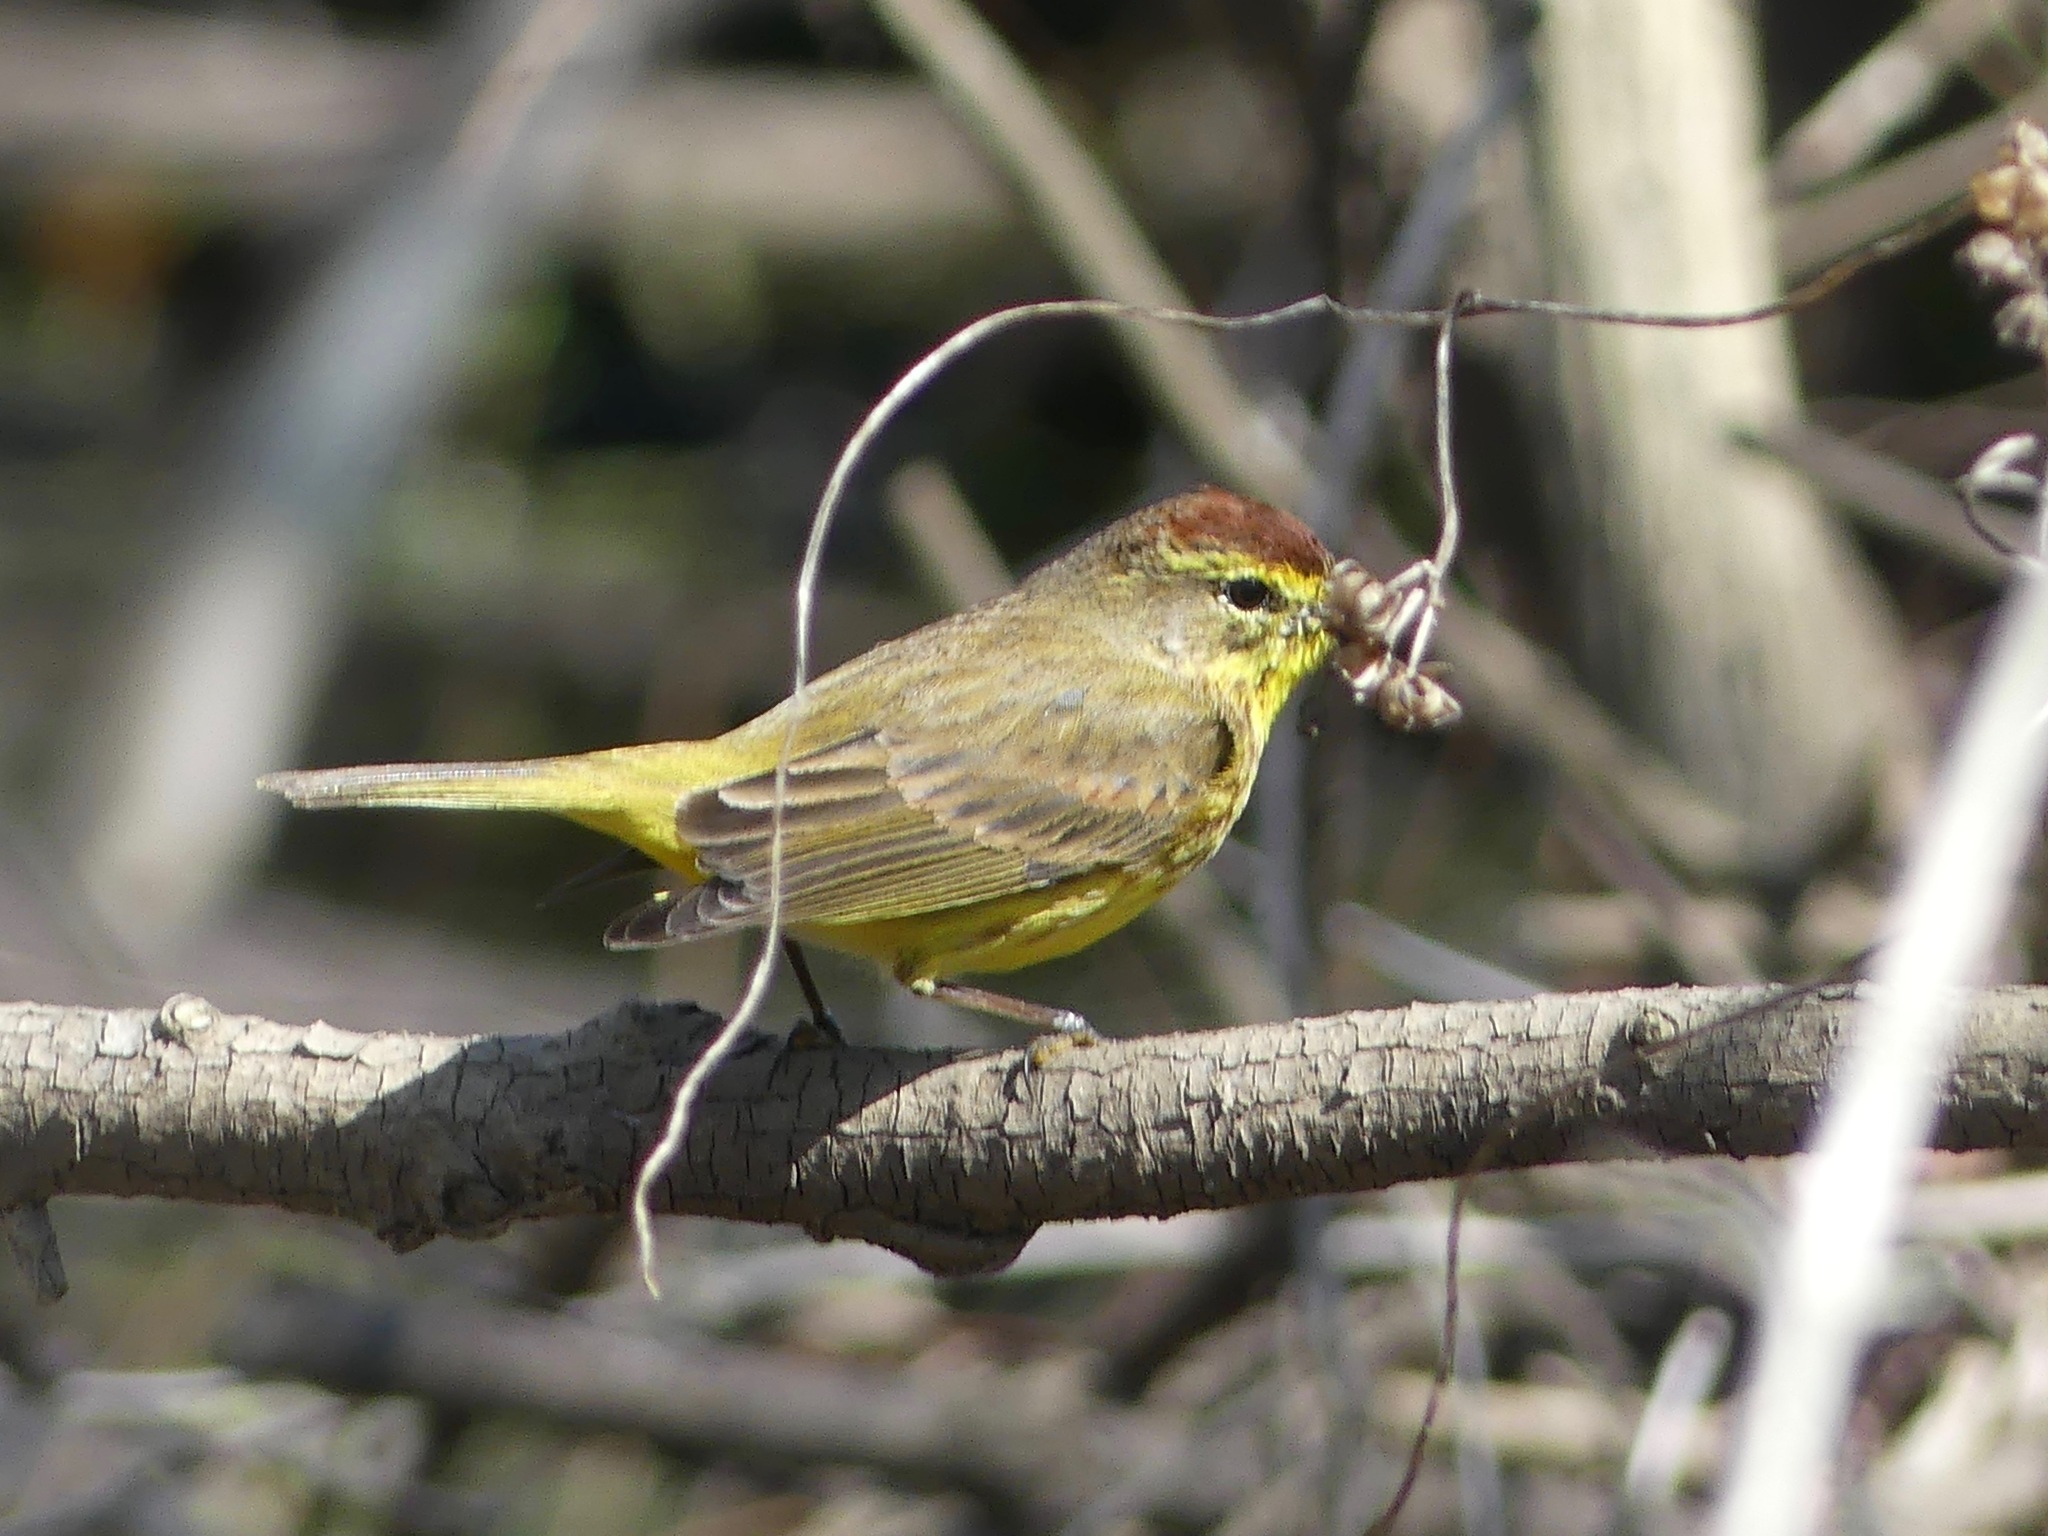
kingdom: Animalia
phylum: Chordata
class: Aves
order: Passeriformes
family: Parulidae
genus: Setophaga
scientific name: Setophaga palmarum
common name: Palm warbler
